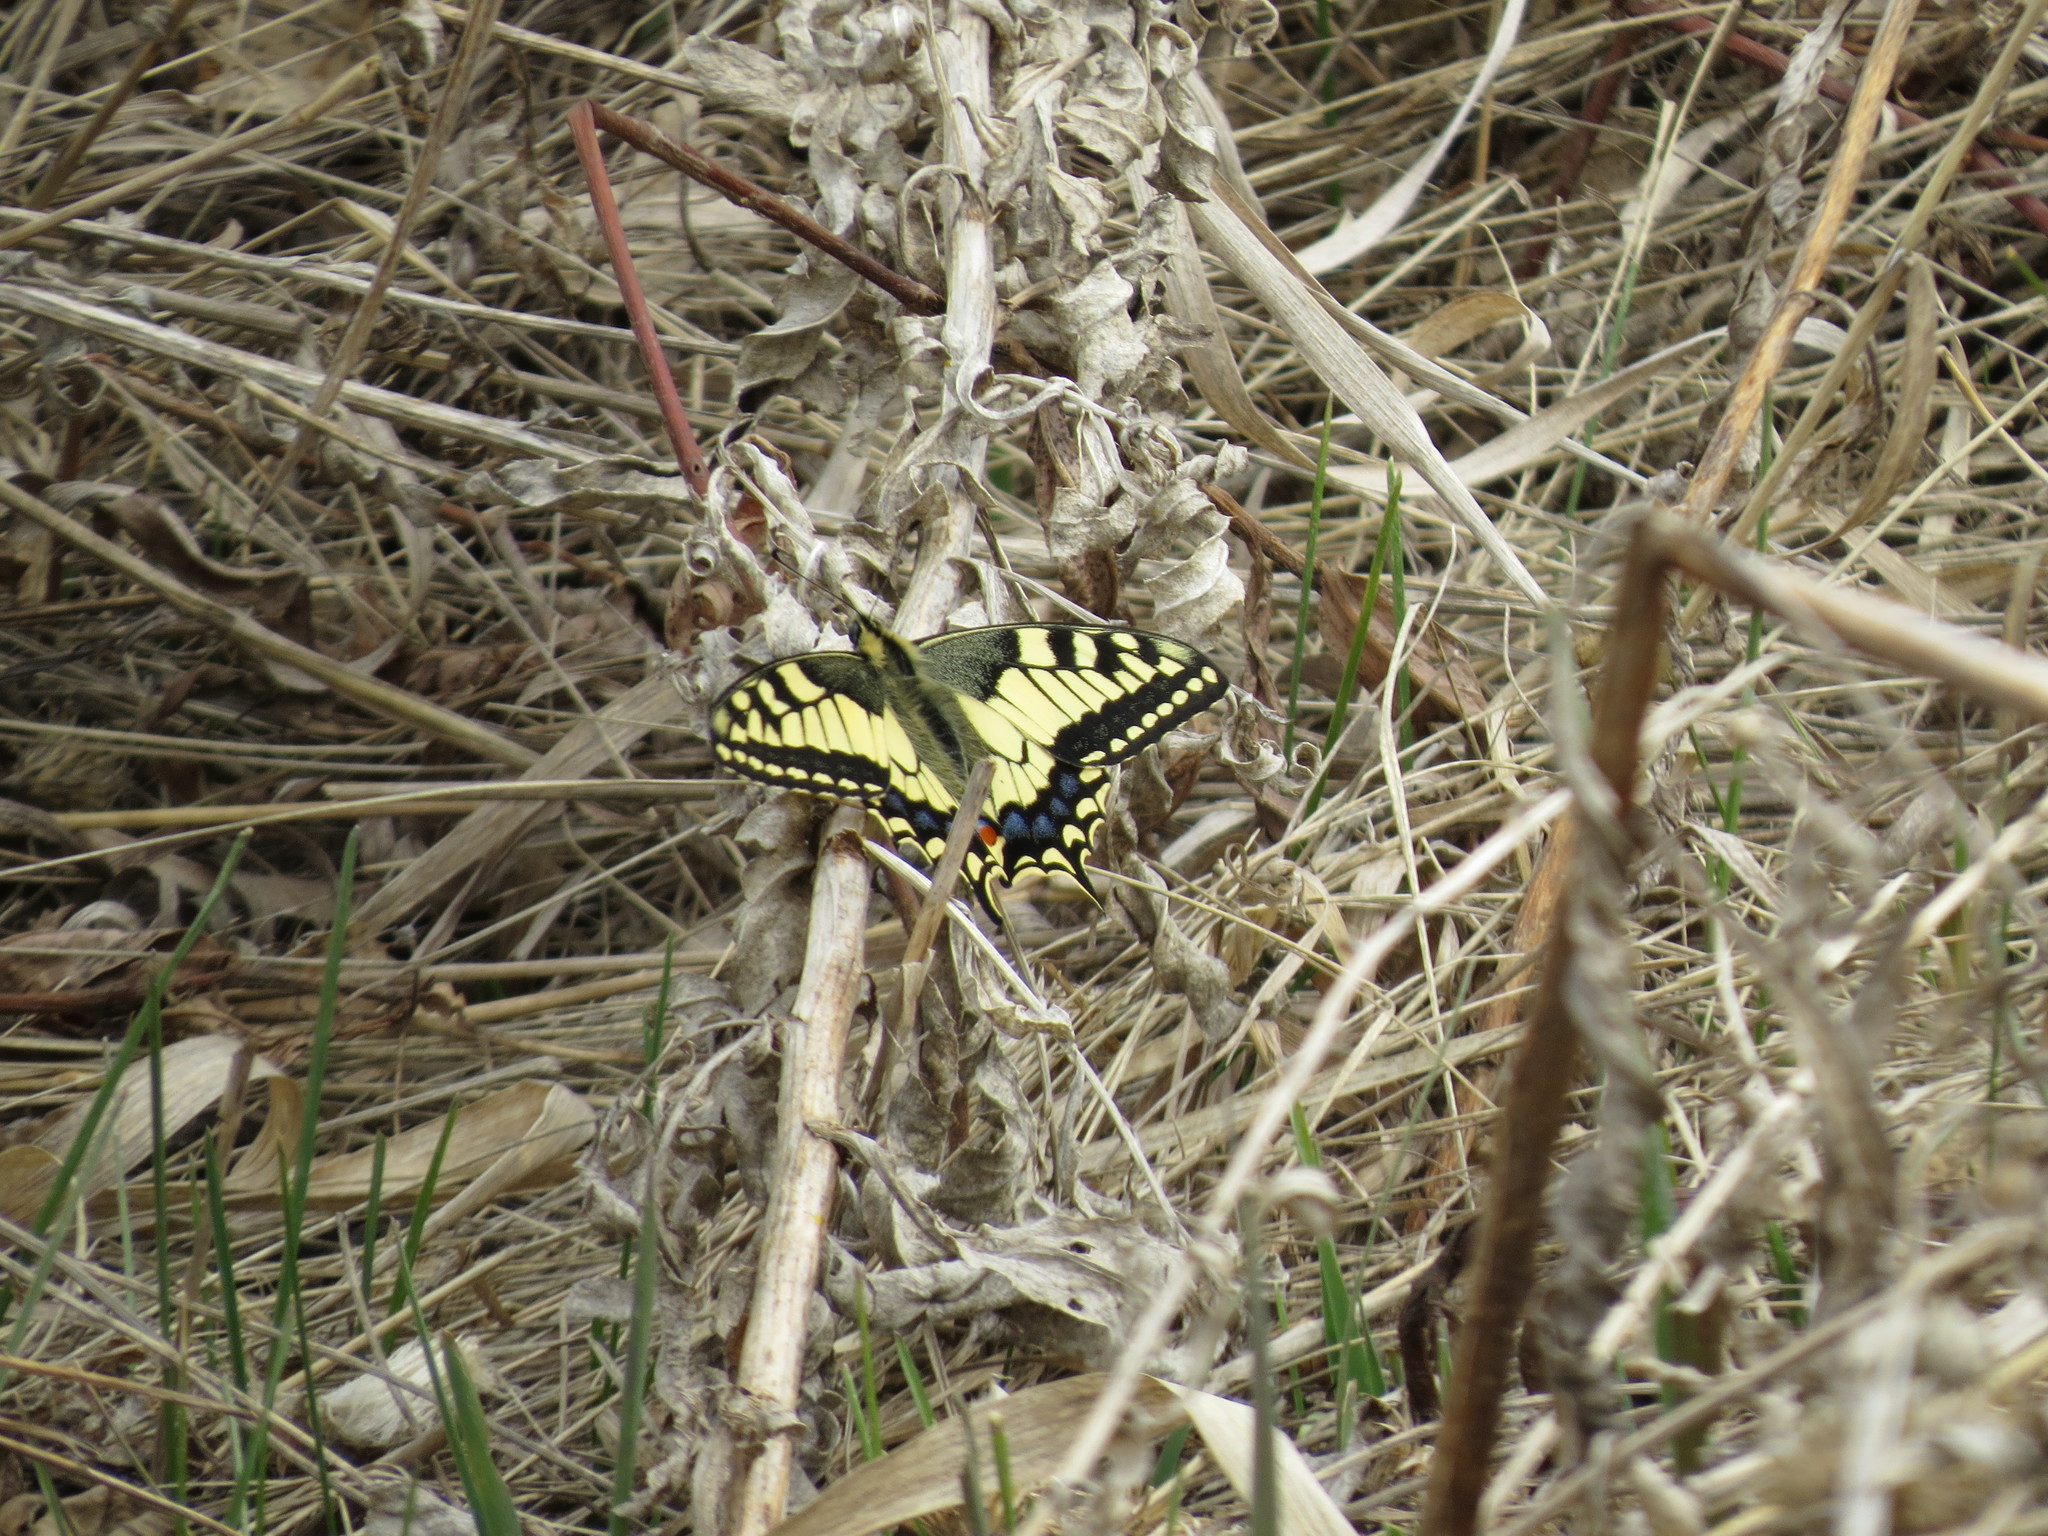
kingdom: Animalia
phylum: Arthropoda
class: Insecta
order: Lepidoptera
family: Papilionidae
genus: Papilio
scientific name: Papilio machaon
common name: Swallowtail
